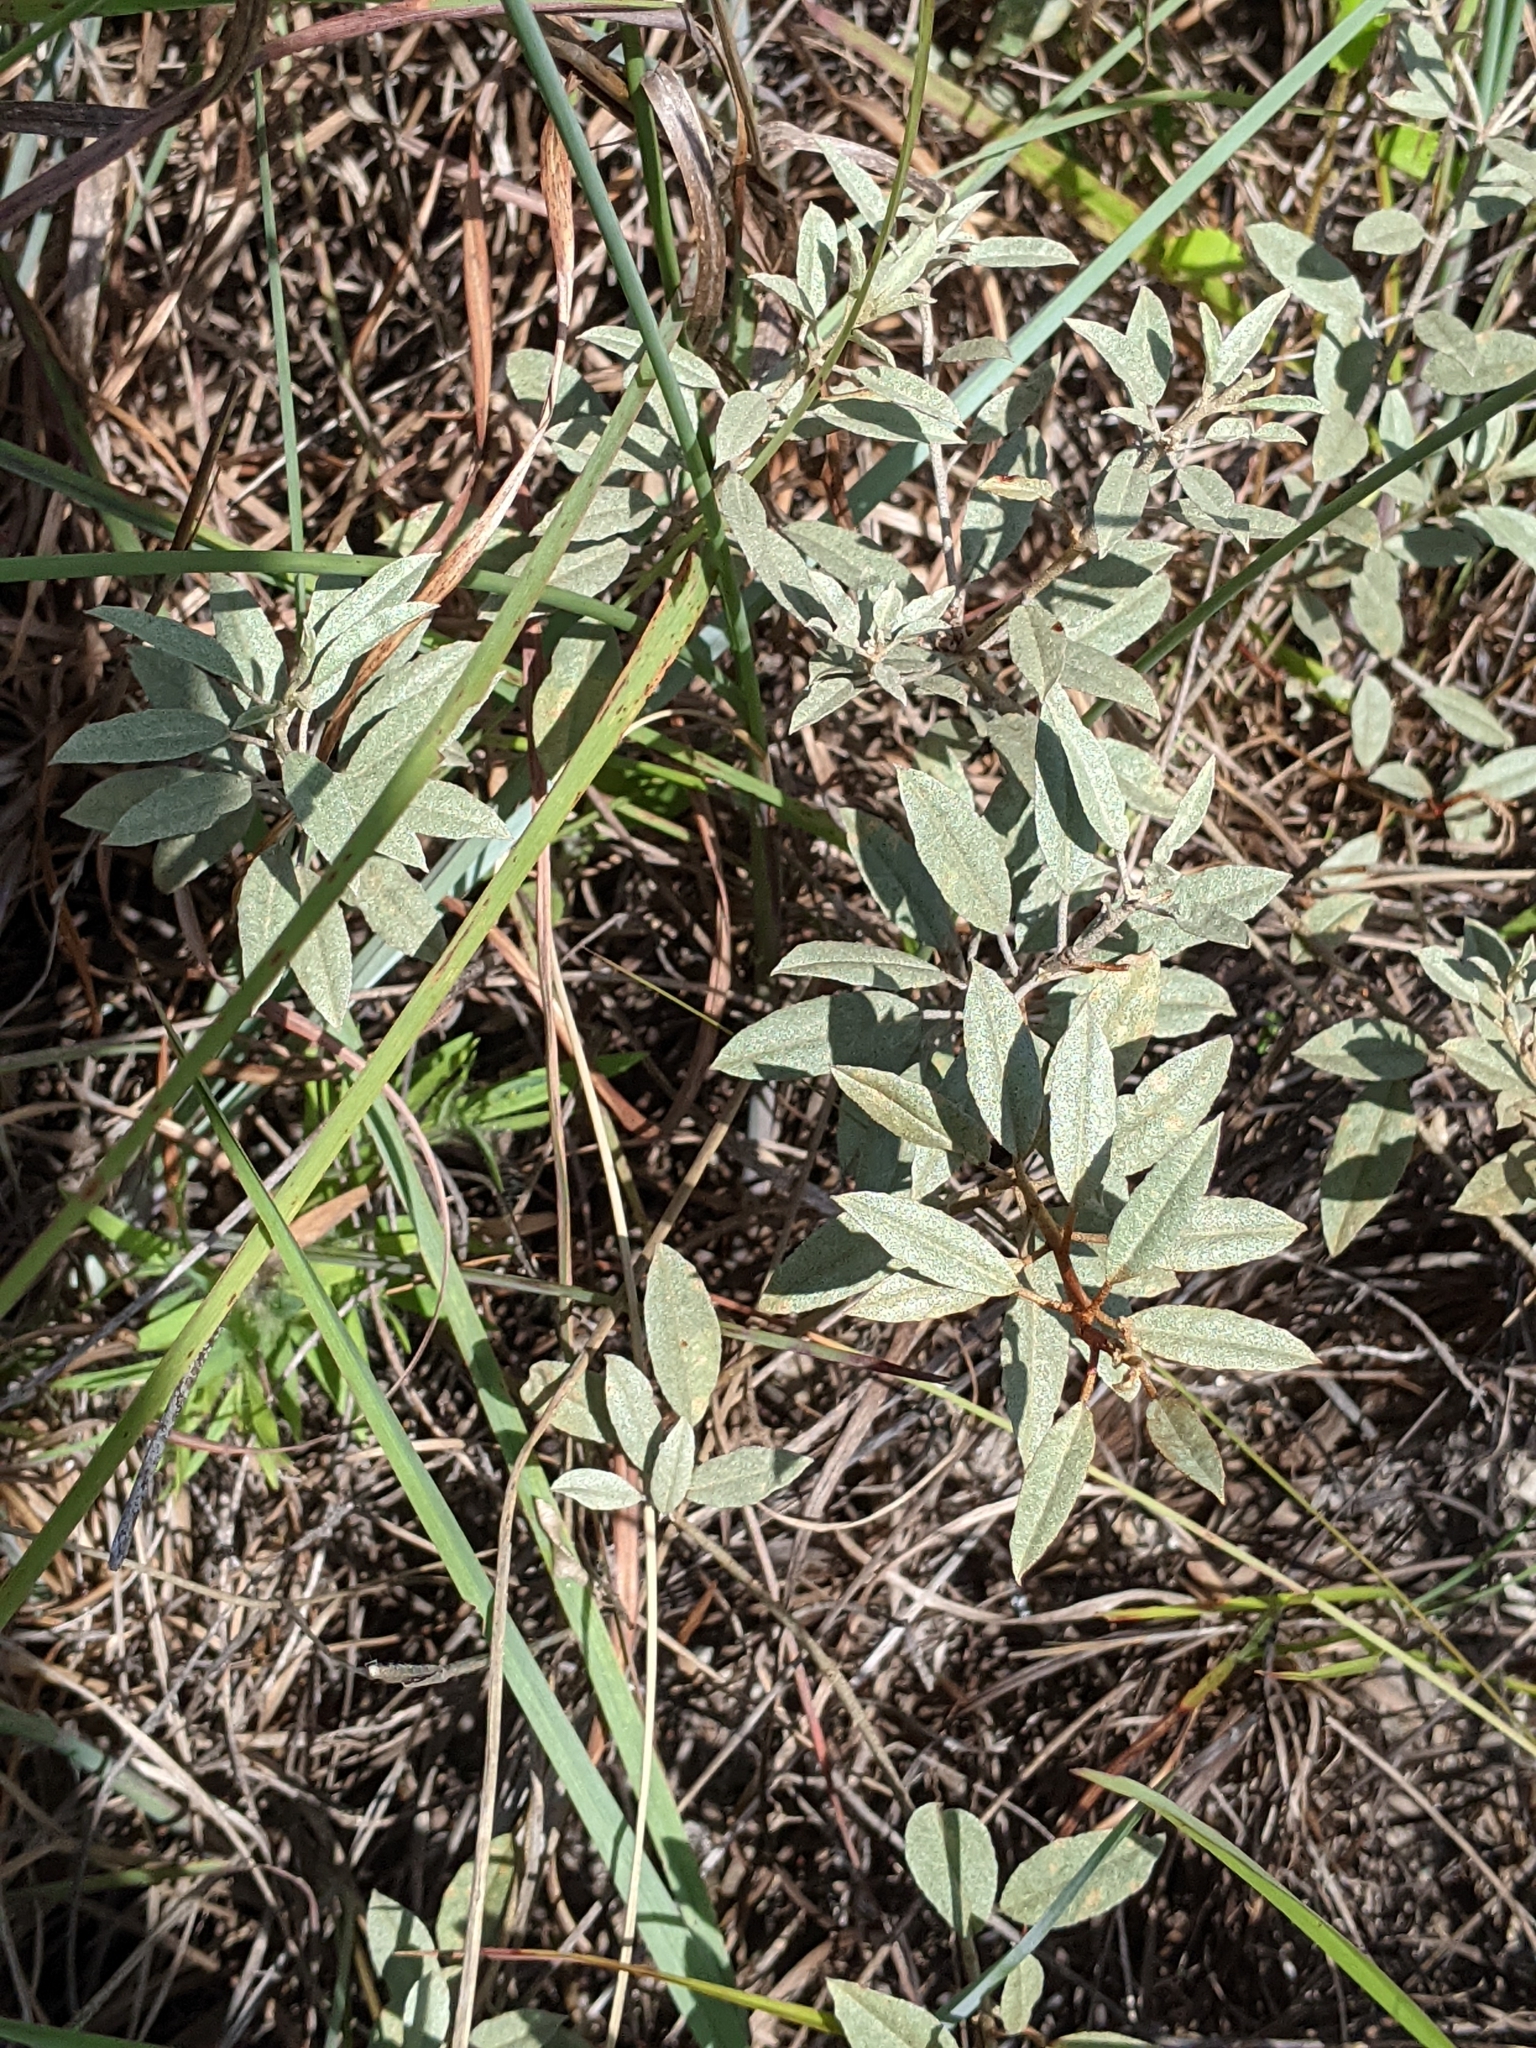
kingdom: Plantae
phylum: Tracheophyta
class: Magnoliopsida
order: Malpighiales
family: Euphorbiaceae
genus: Croton
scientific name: Croton argyranthemus
